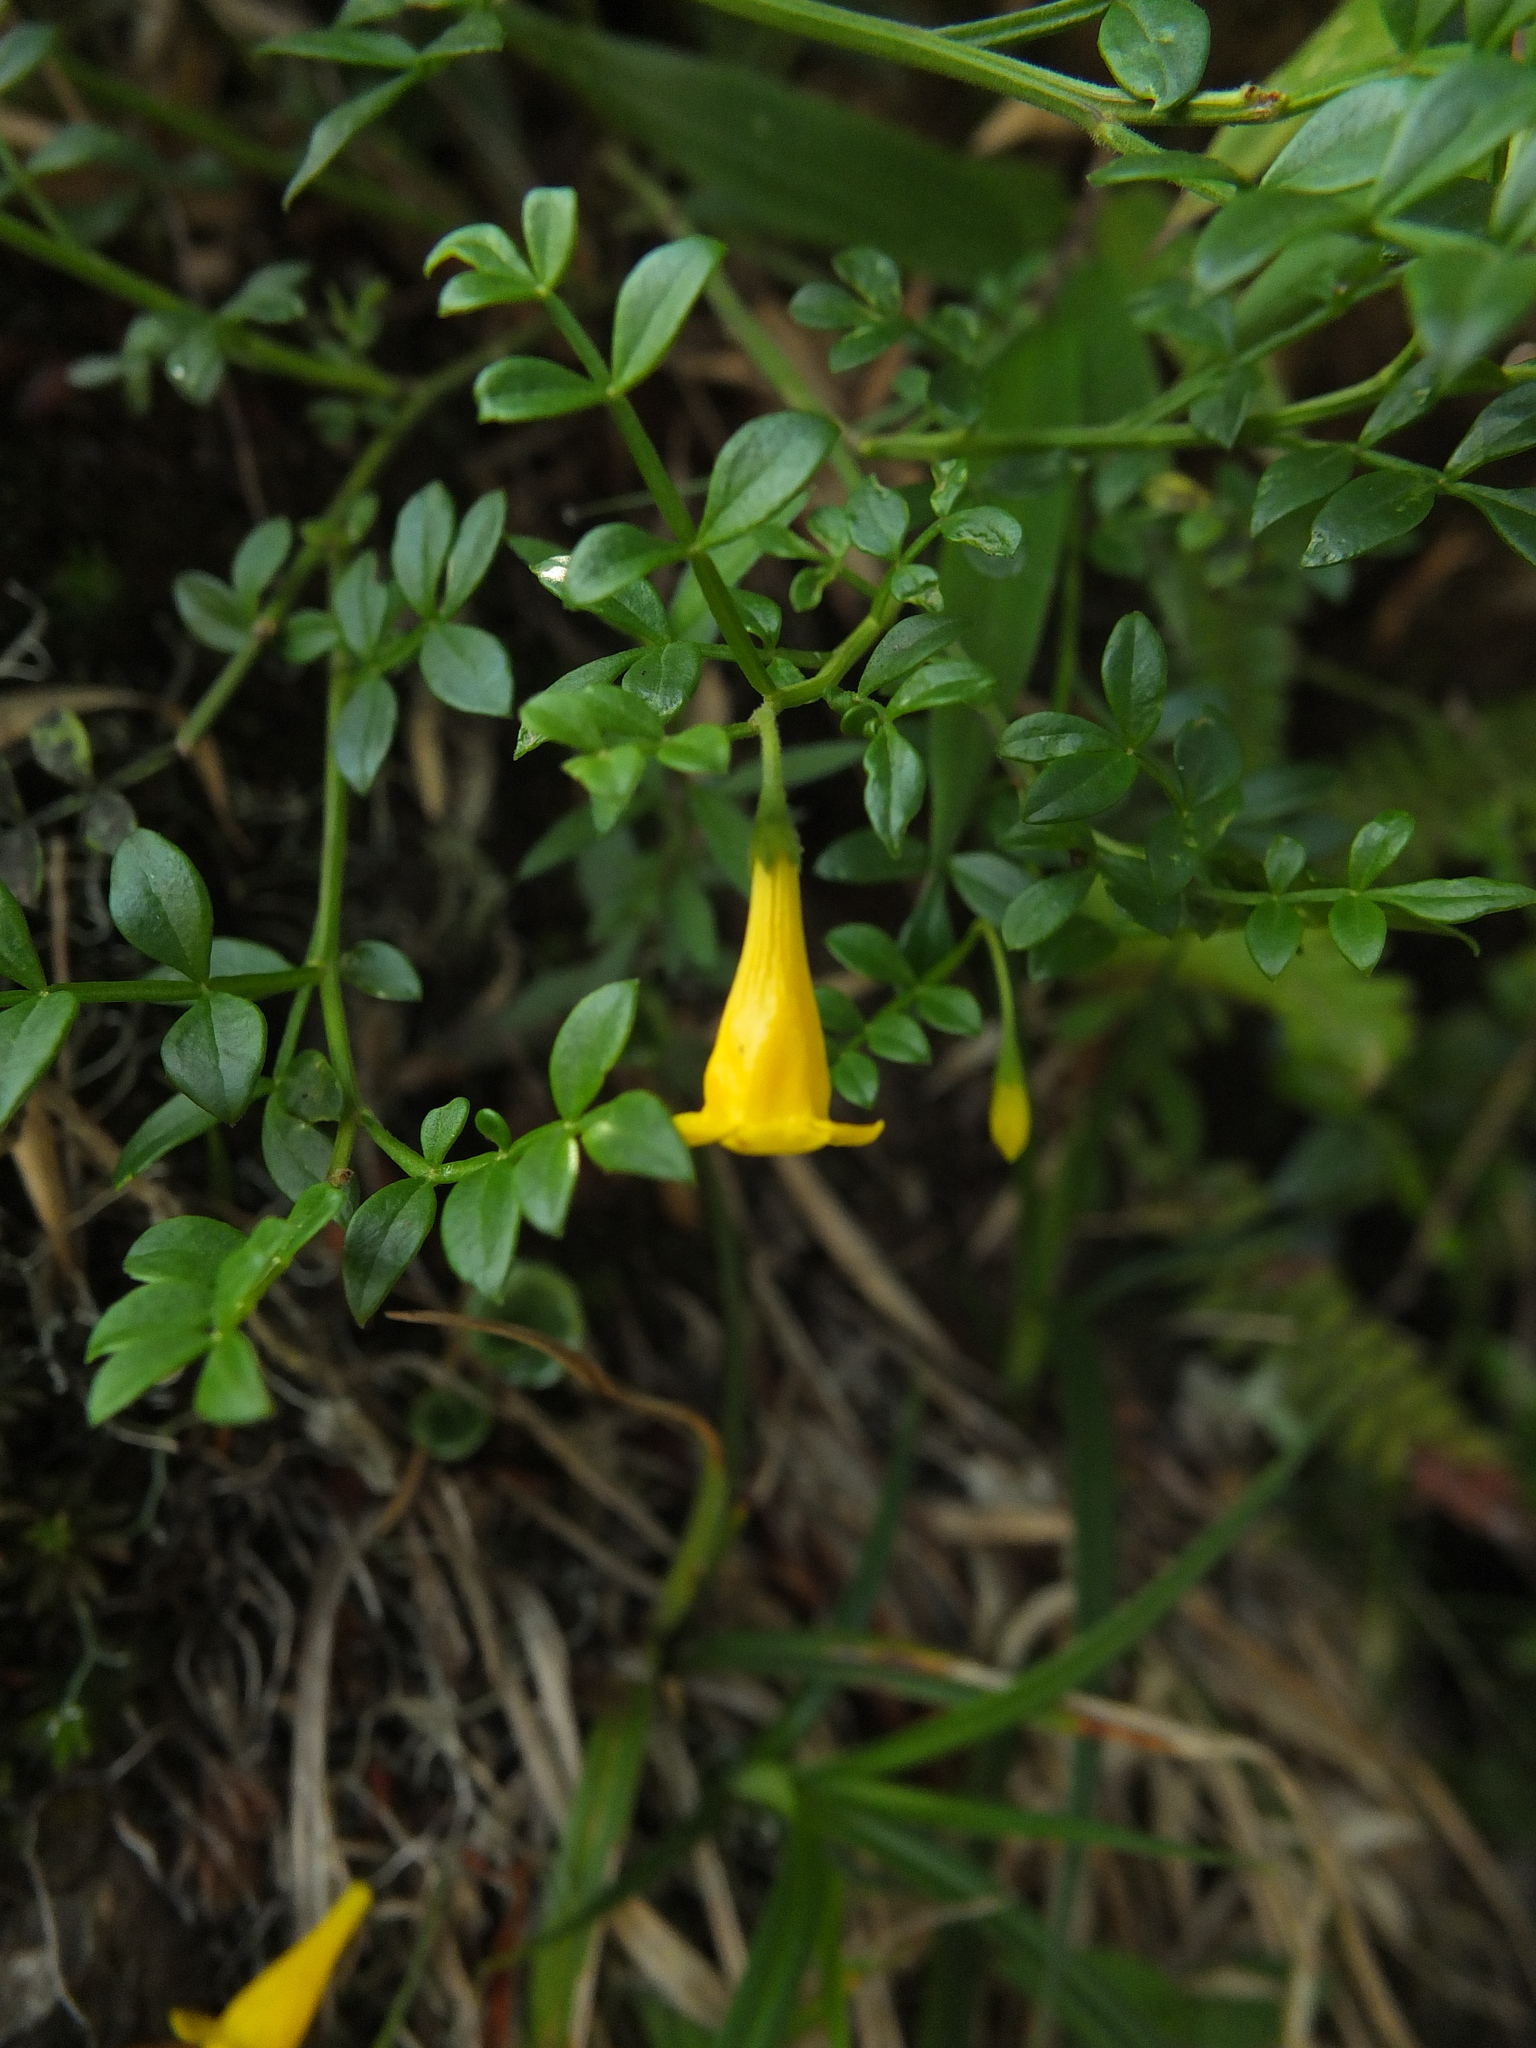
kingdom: Plantae
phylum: Tracheophyta
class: Magnoliopsida
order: Lamiales
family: Oleaceae
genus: Chrysojasminum
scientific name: Chrysojasminum bignoniaceum
